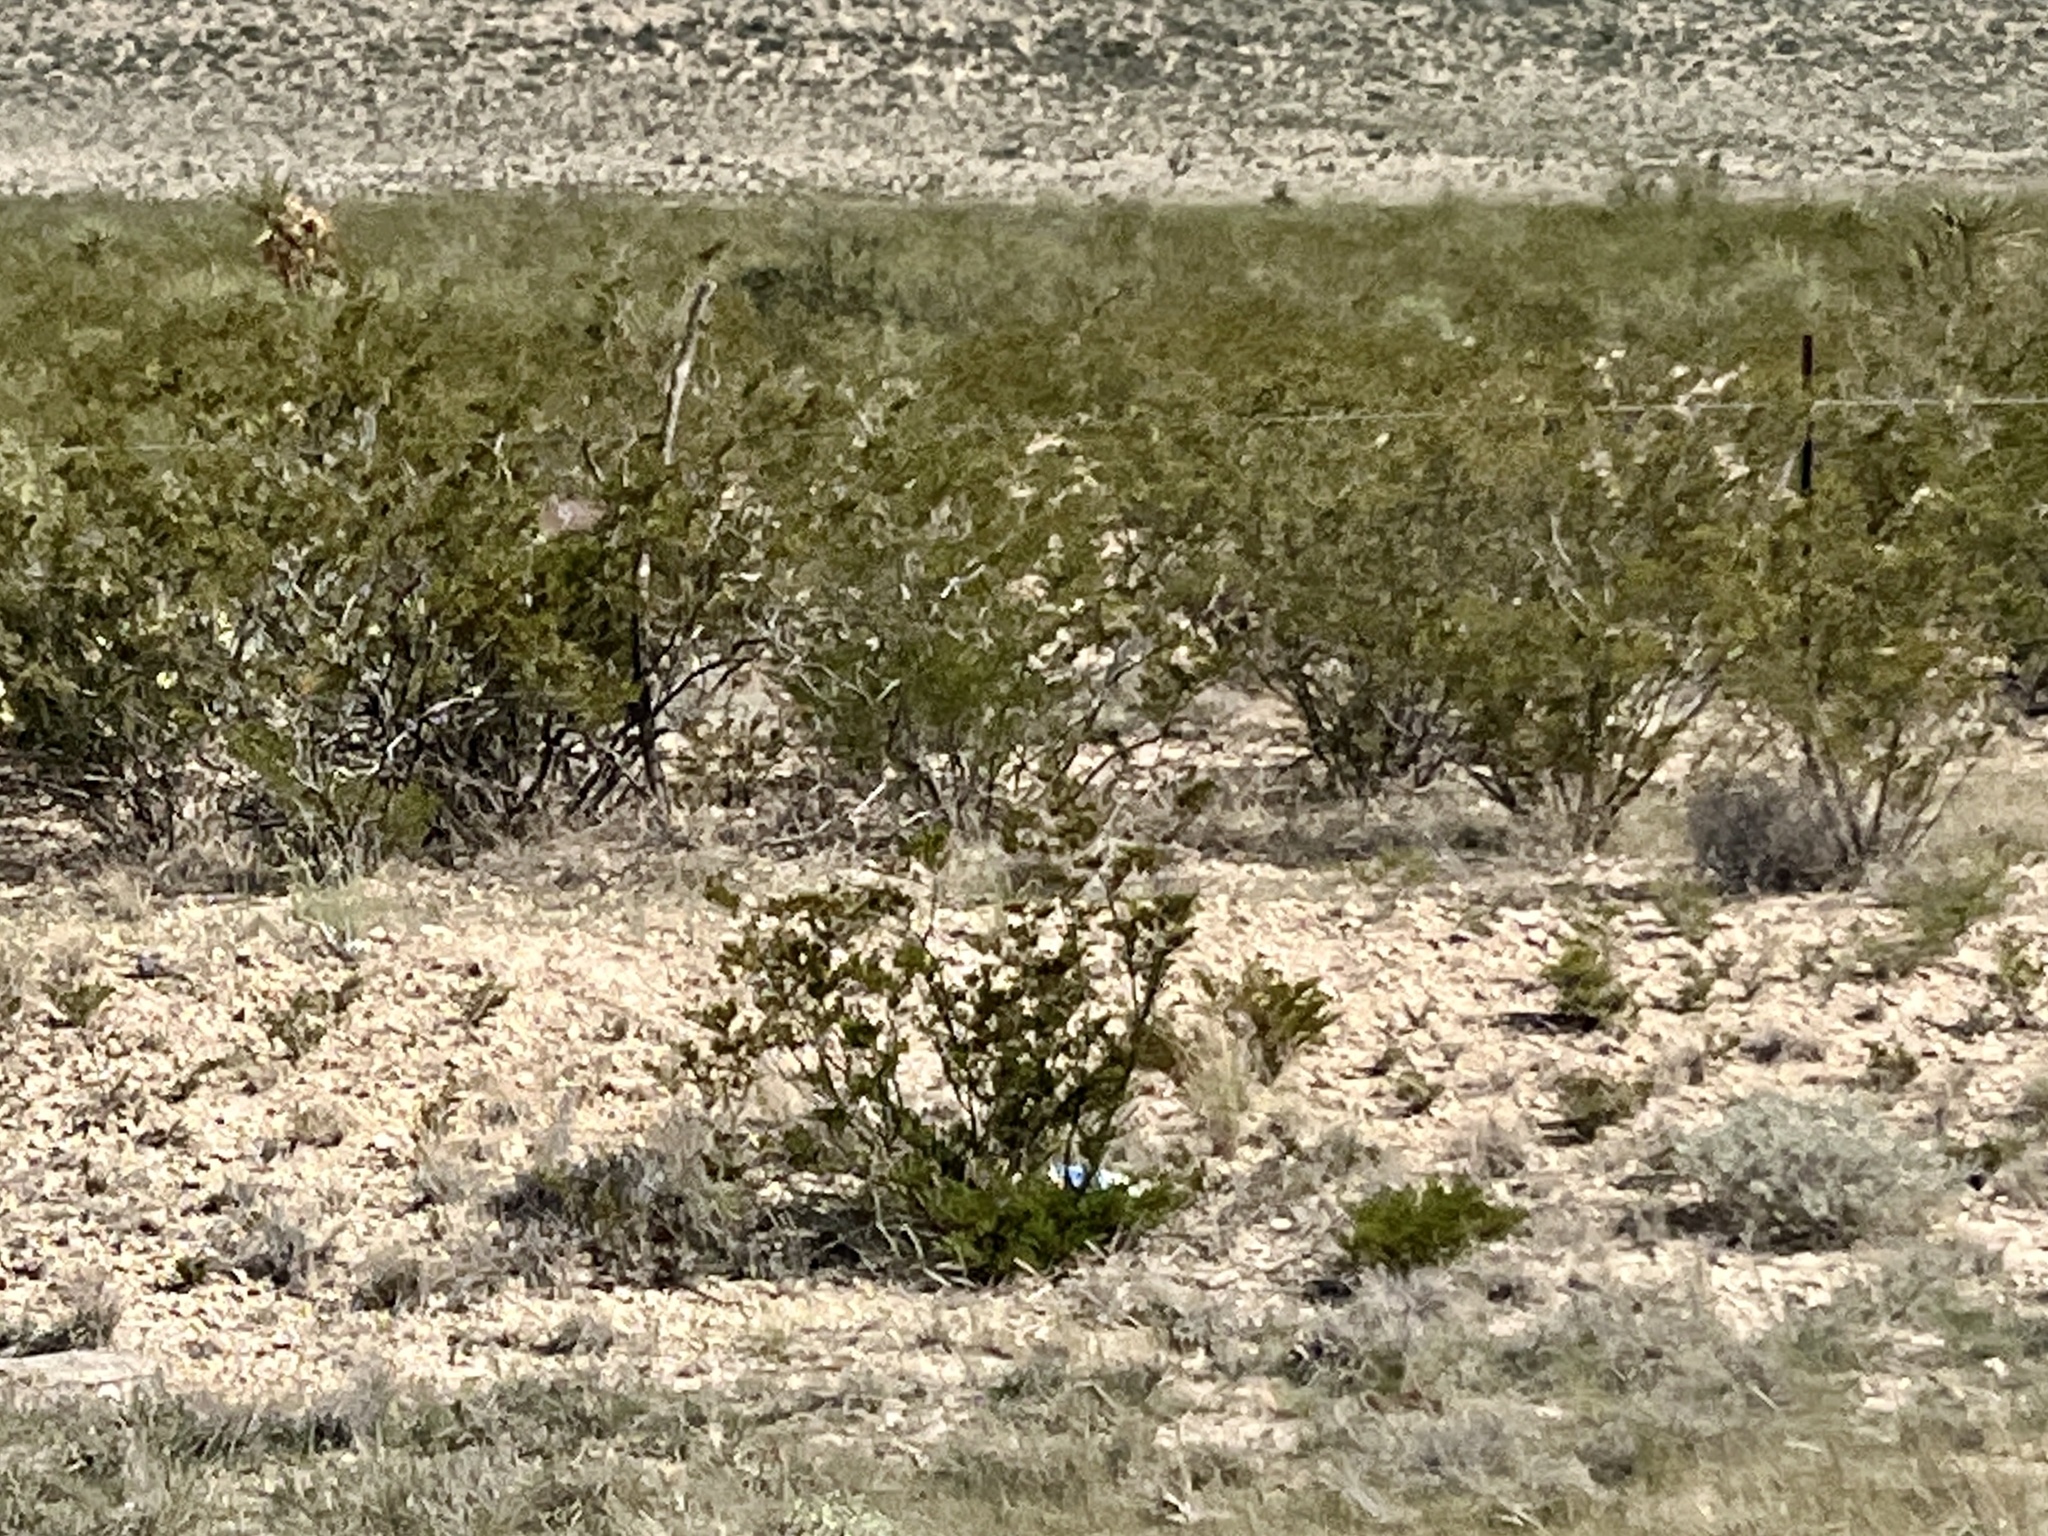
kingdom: Plantae
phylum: Tracheophyta
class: Magnoliopsida
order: Zygophyllales
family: Zygophyllaceae
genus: Larrea
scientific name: Larrea tridentata
